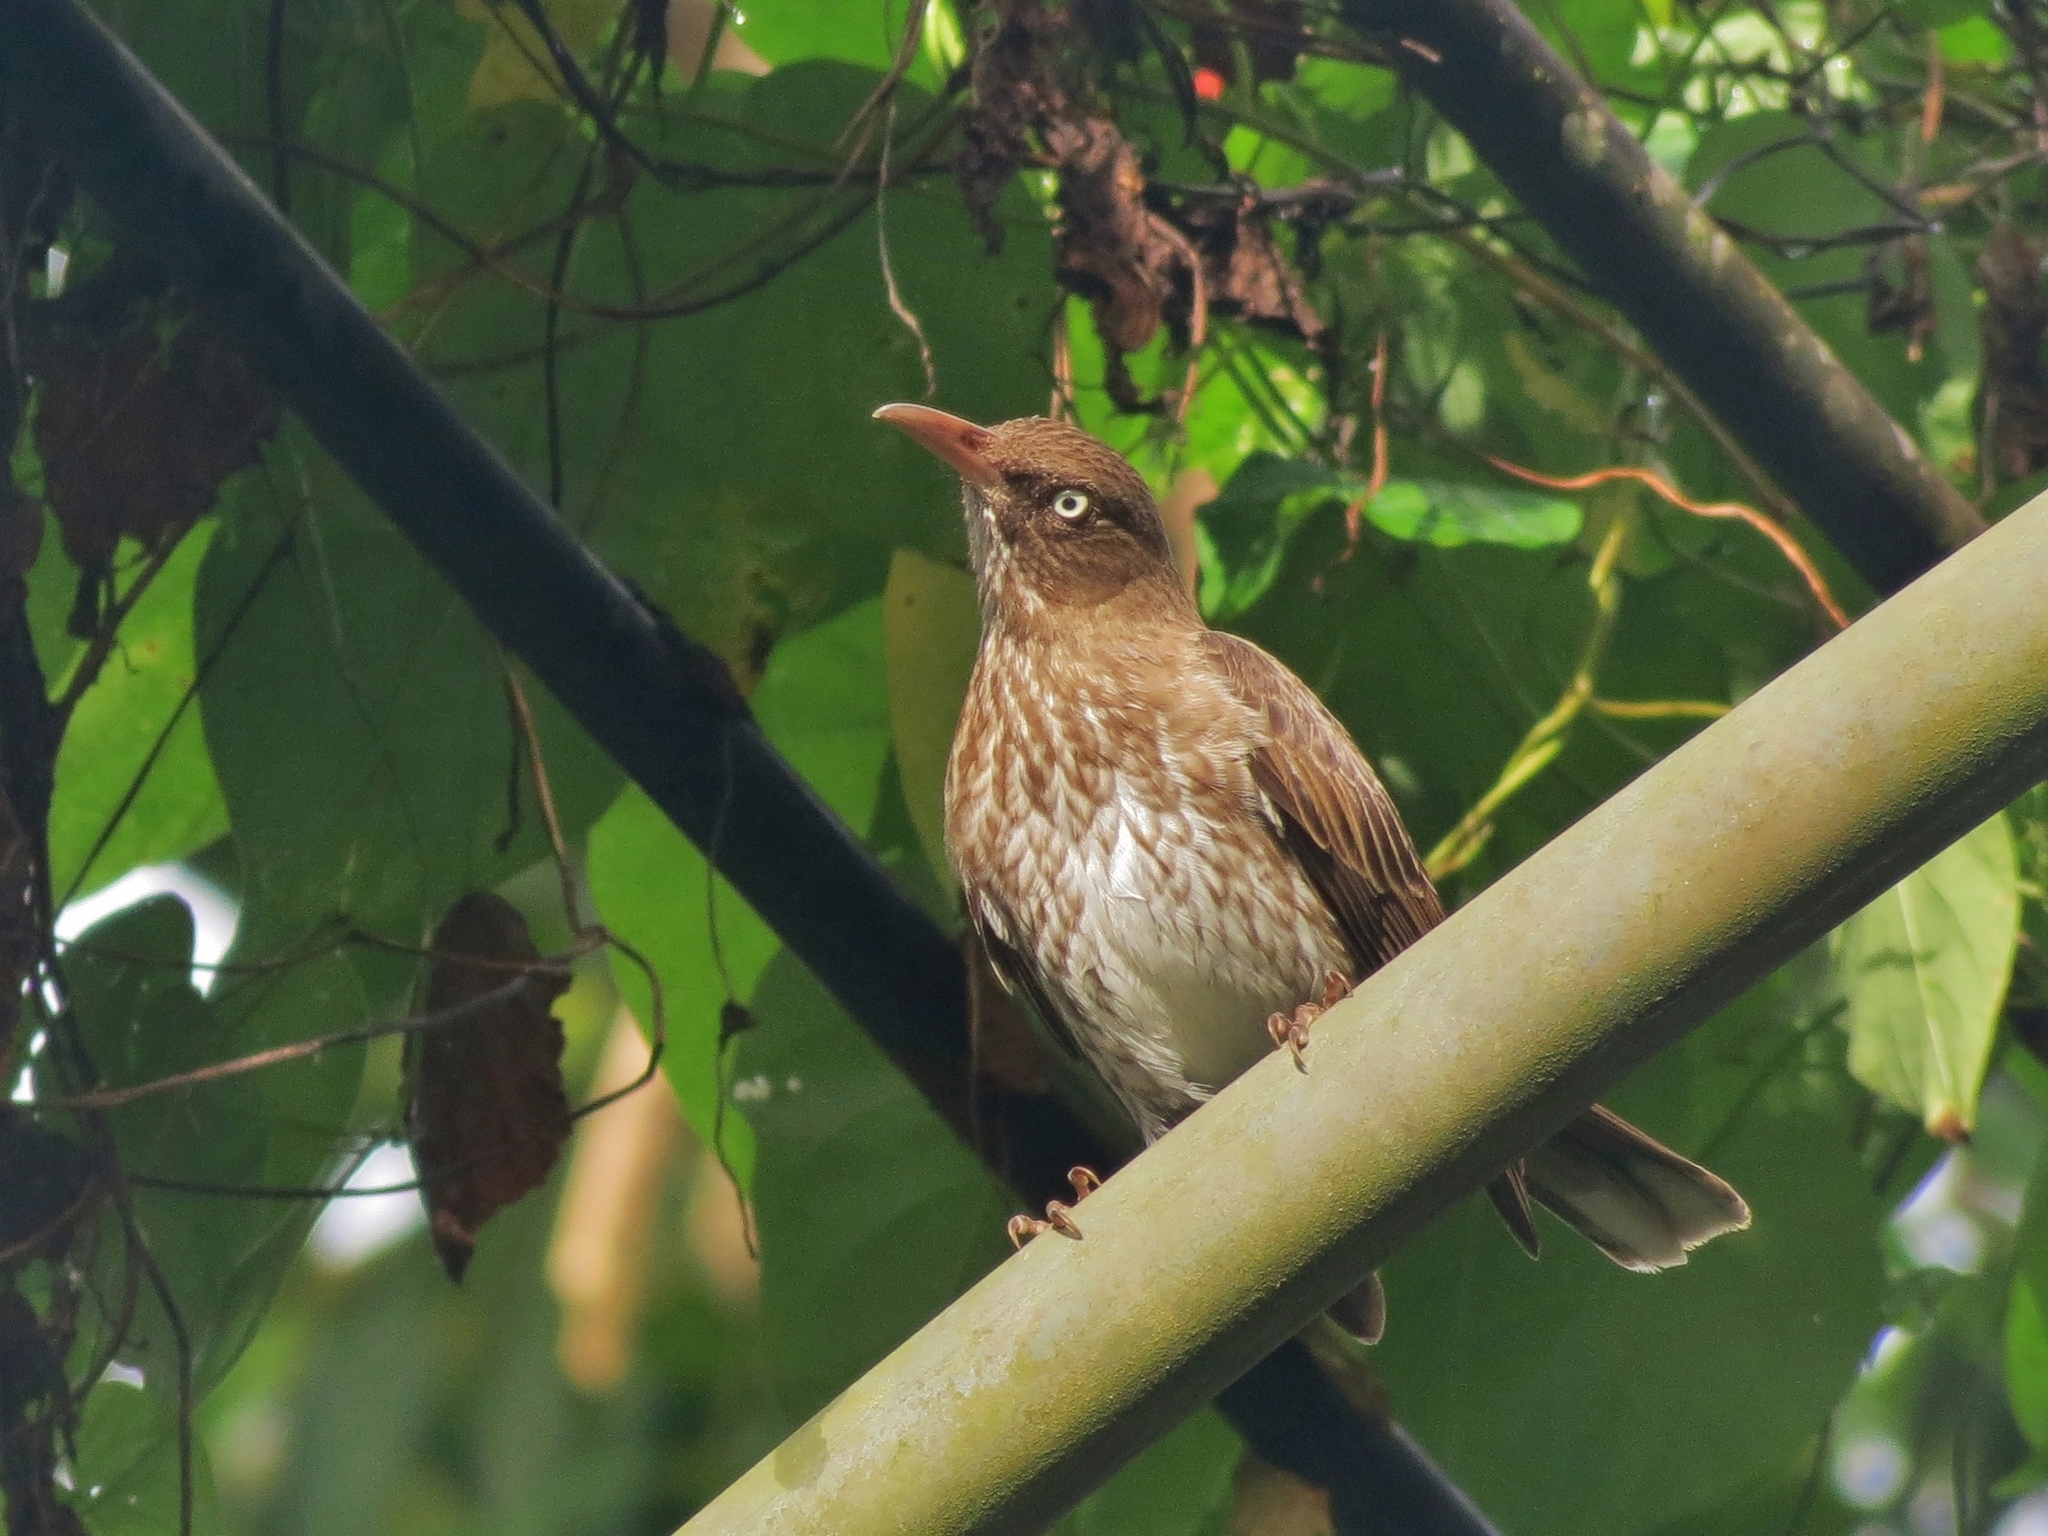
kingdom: Animalia
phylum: Chordata
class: Aves
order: Passeriformes
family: Mimidae
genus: Margarops
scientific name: Margarops fuscatus
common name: Pearly-eyed thrasher
